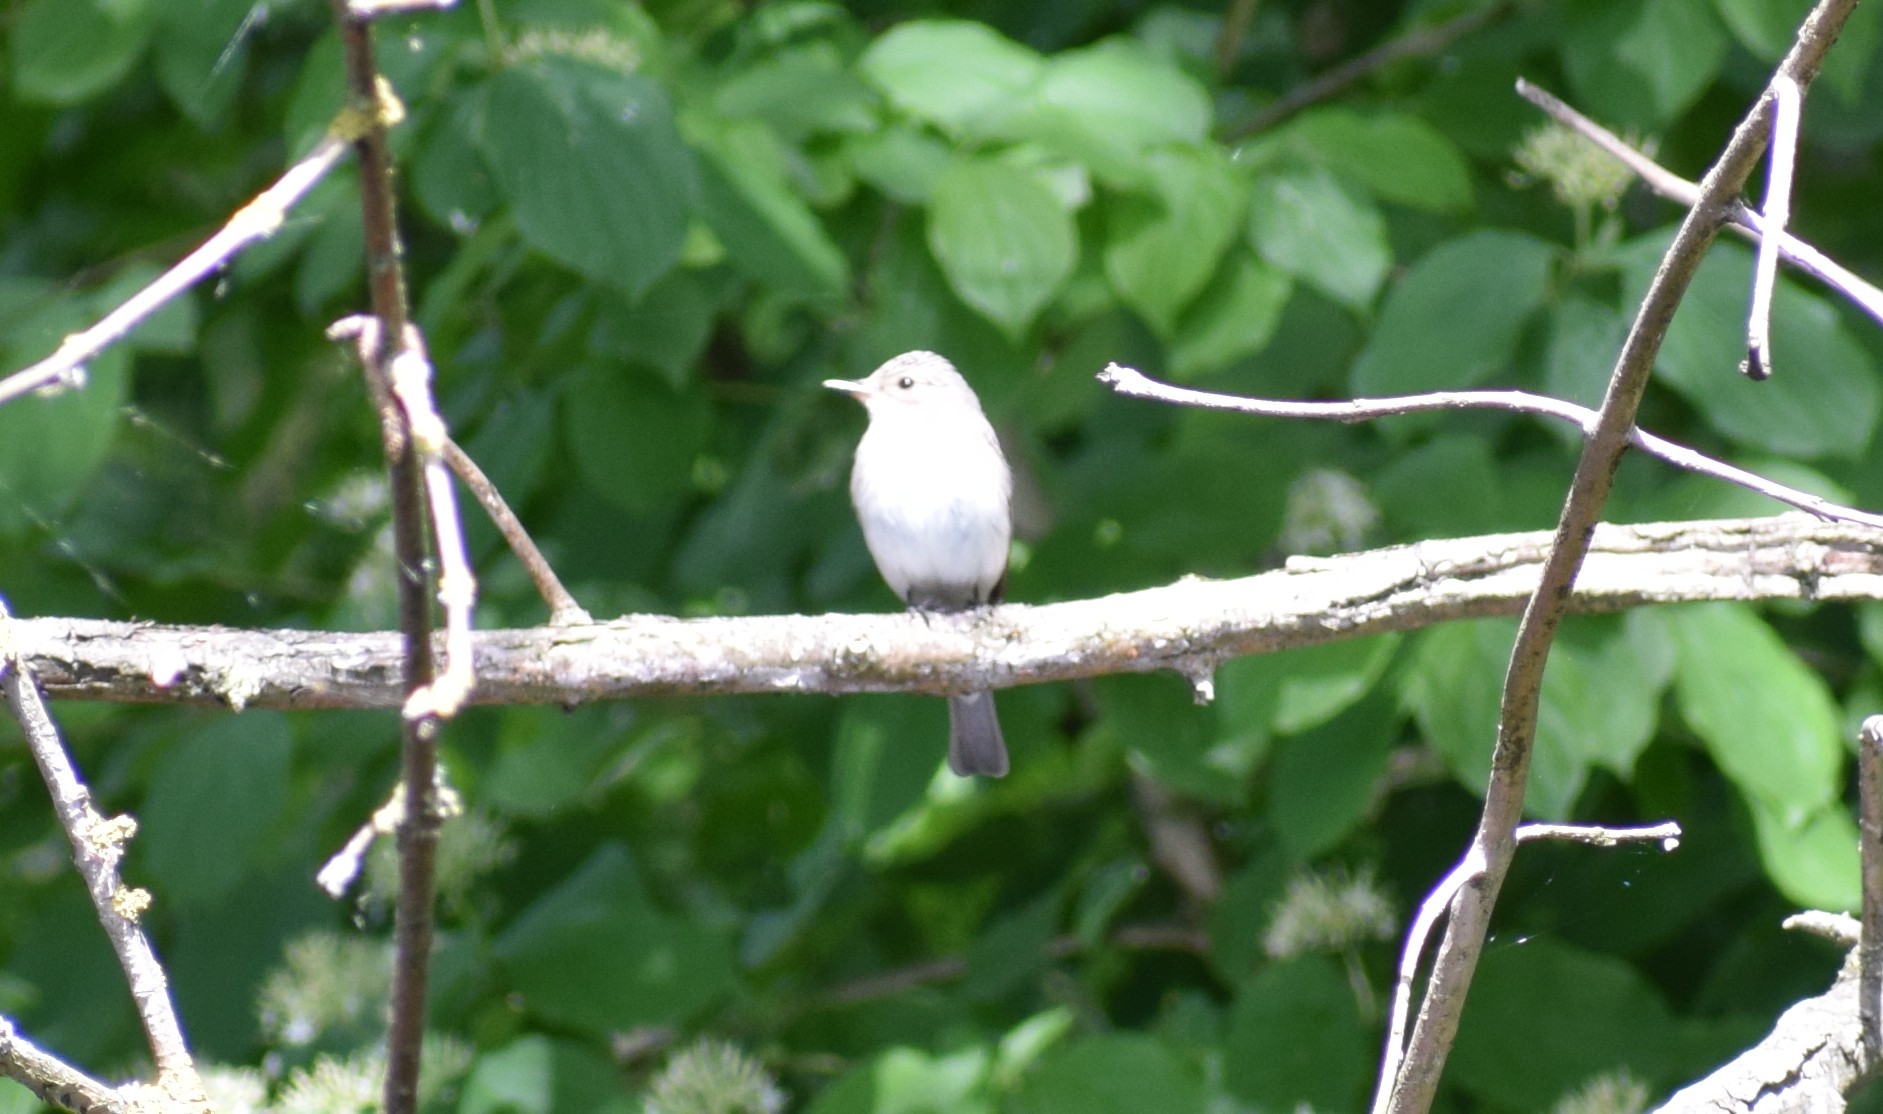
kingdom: Animalia
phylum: Chordata
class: Aves
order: Passeriformes
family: Muscicapidae
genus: Muscicapa
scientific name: Muscicapa striata
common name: Spotted flycatcher
